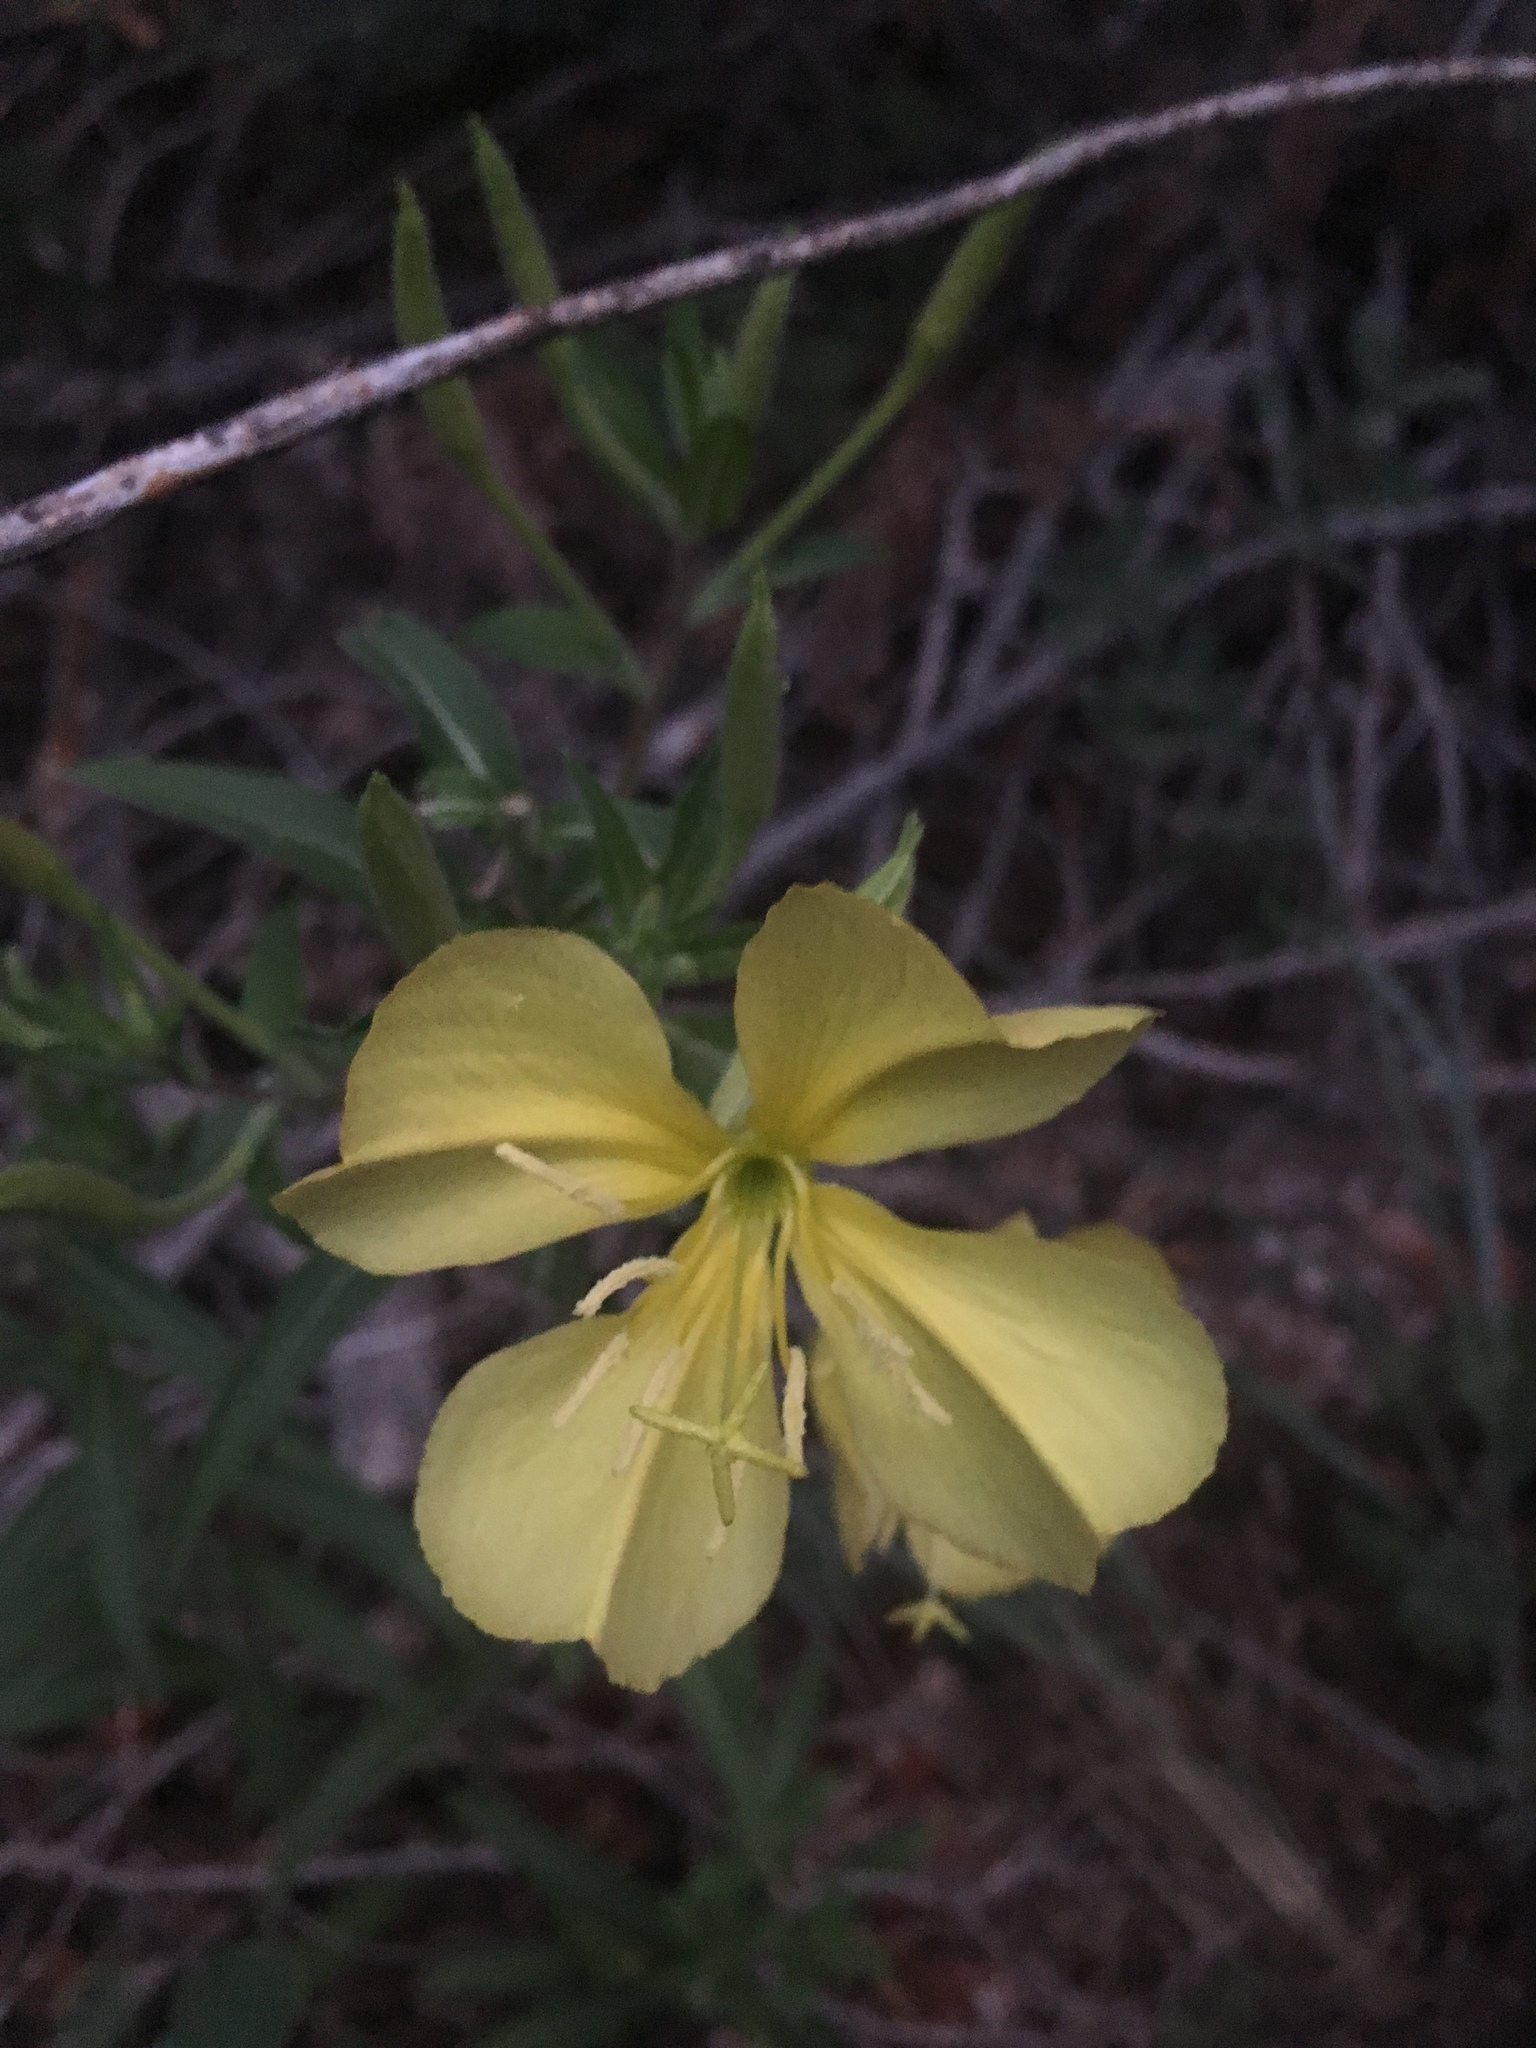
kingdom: Plantae
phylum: Tracheophyta
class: Magnoliopsida
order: Myrtales
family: Onagraceae
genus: Oenothera
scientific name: Oenothera elata
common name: Hooker's evening-primrose
